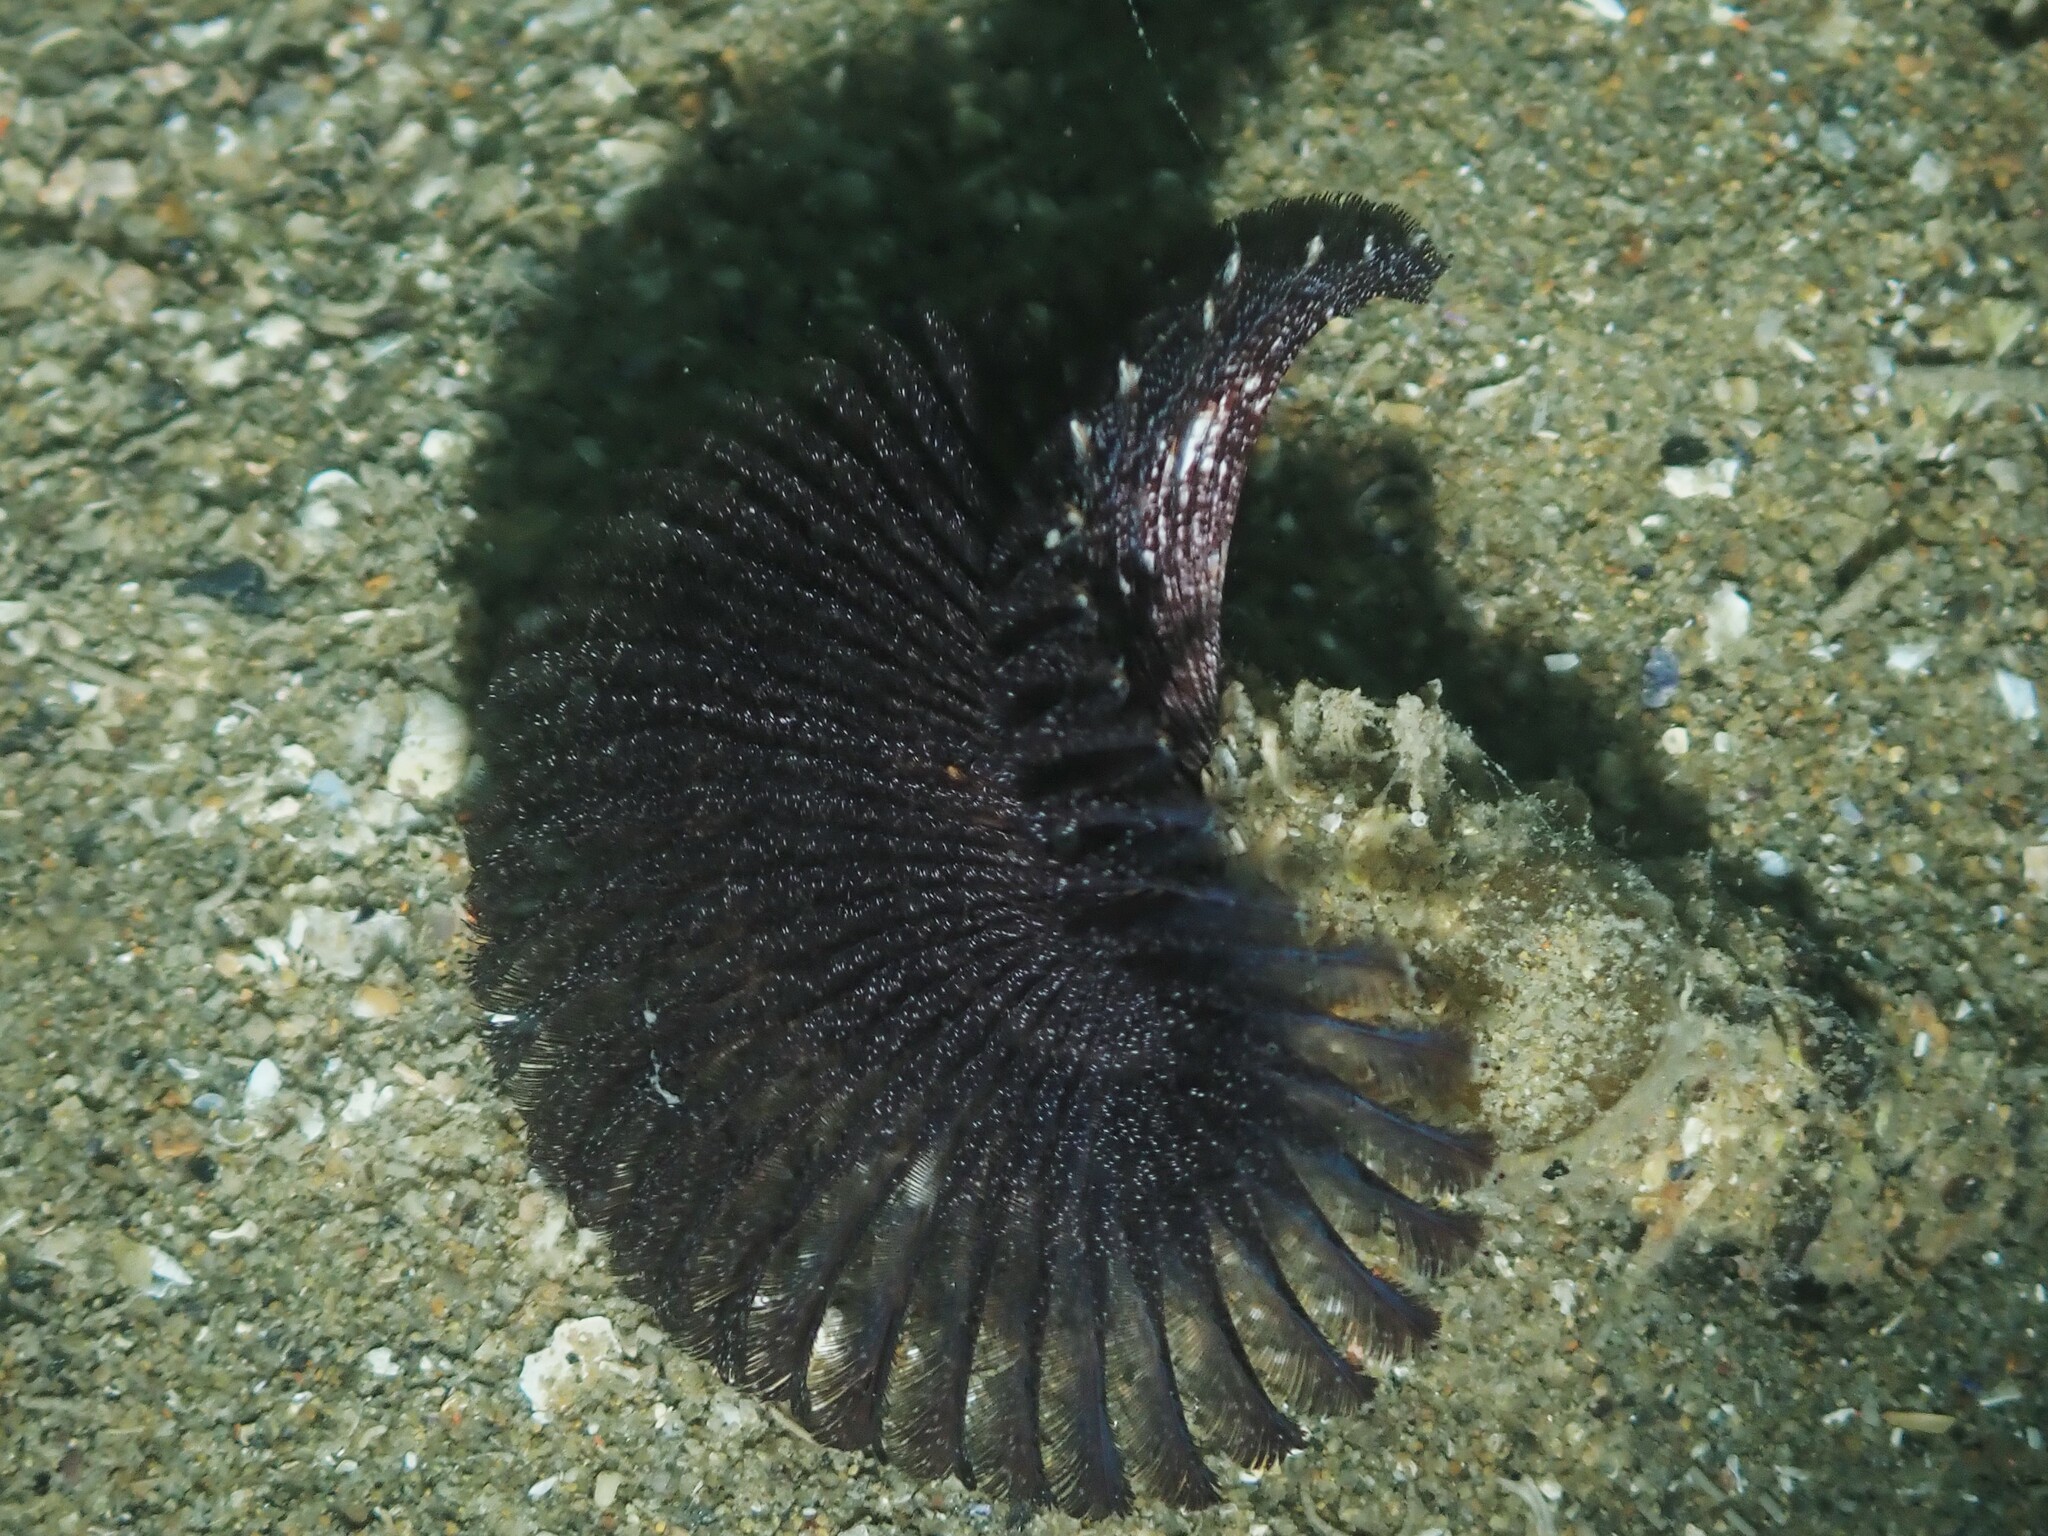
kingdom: Animalia
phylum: Annelida
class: Polychaeta
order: Sabellida
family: Sabellidae
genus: Acromegalomma
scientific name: Acromegalomma suspiciens
